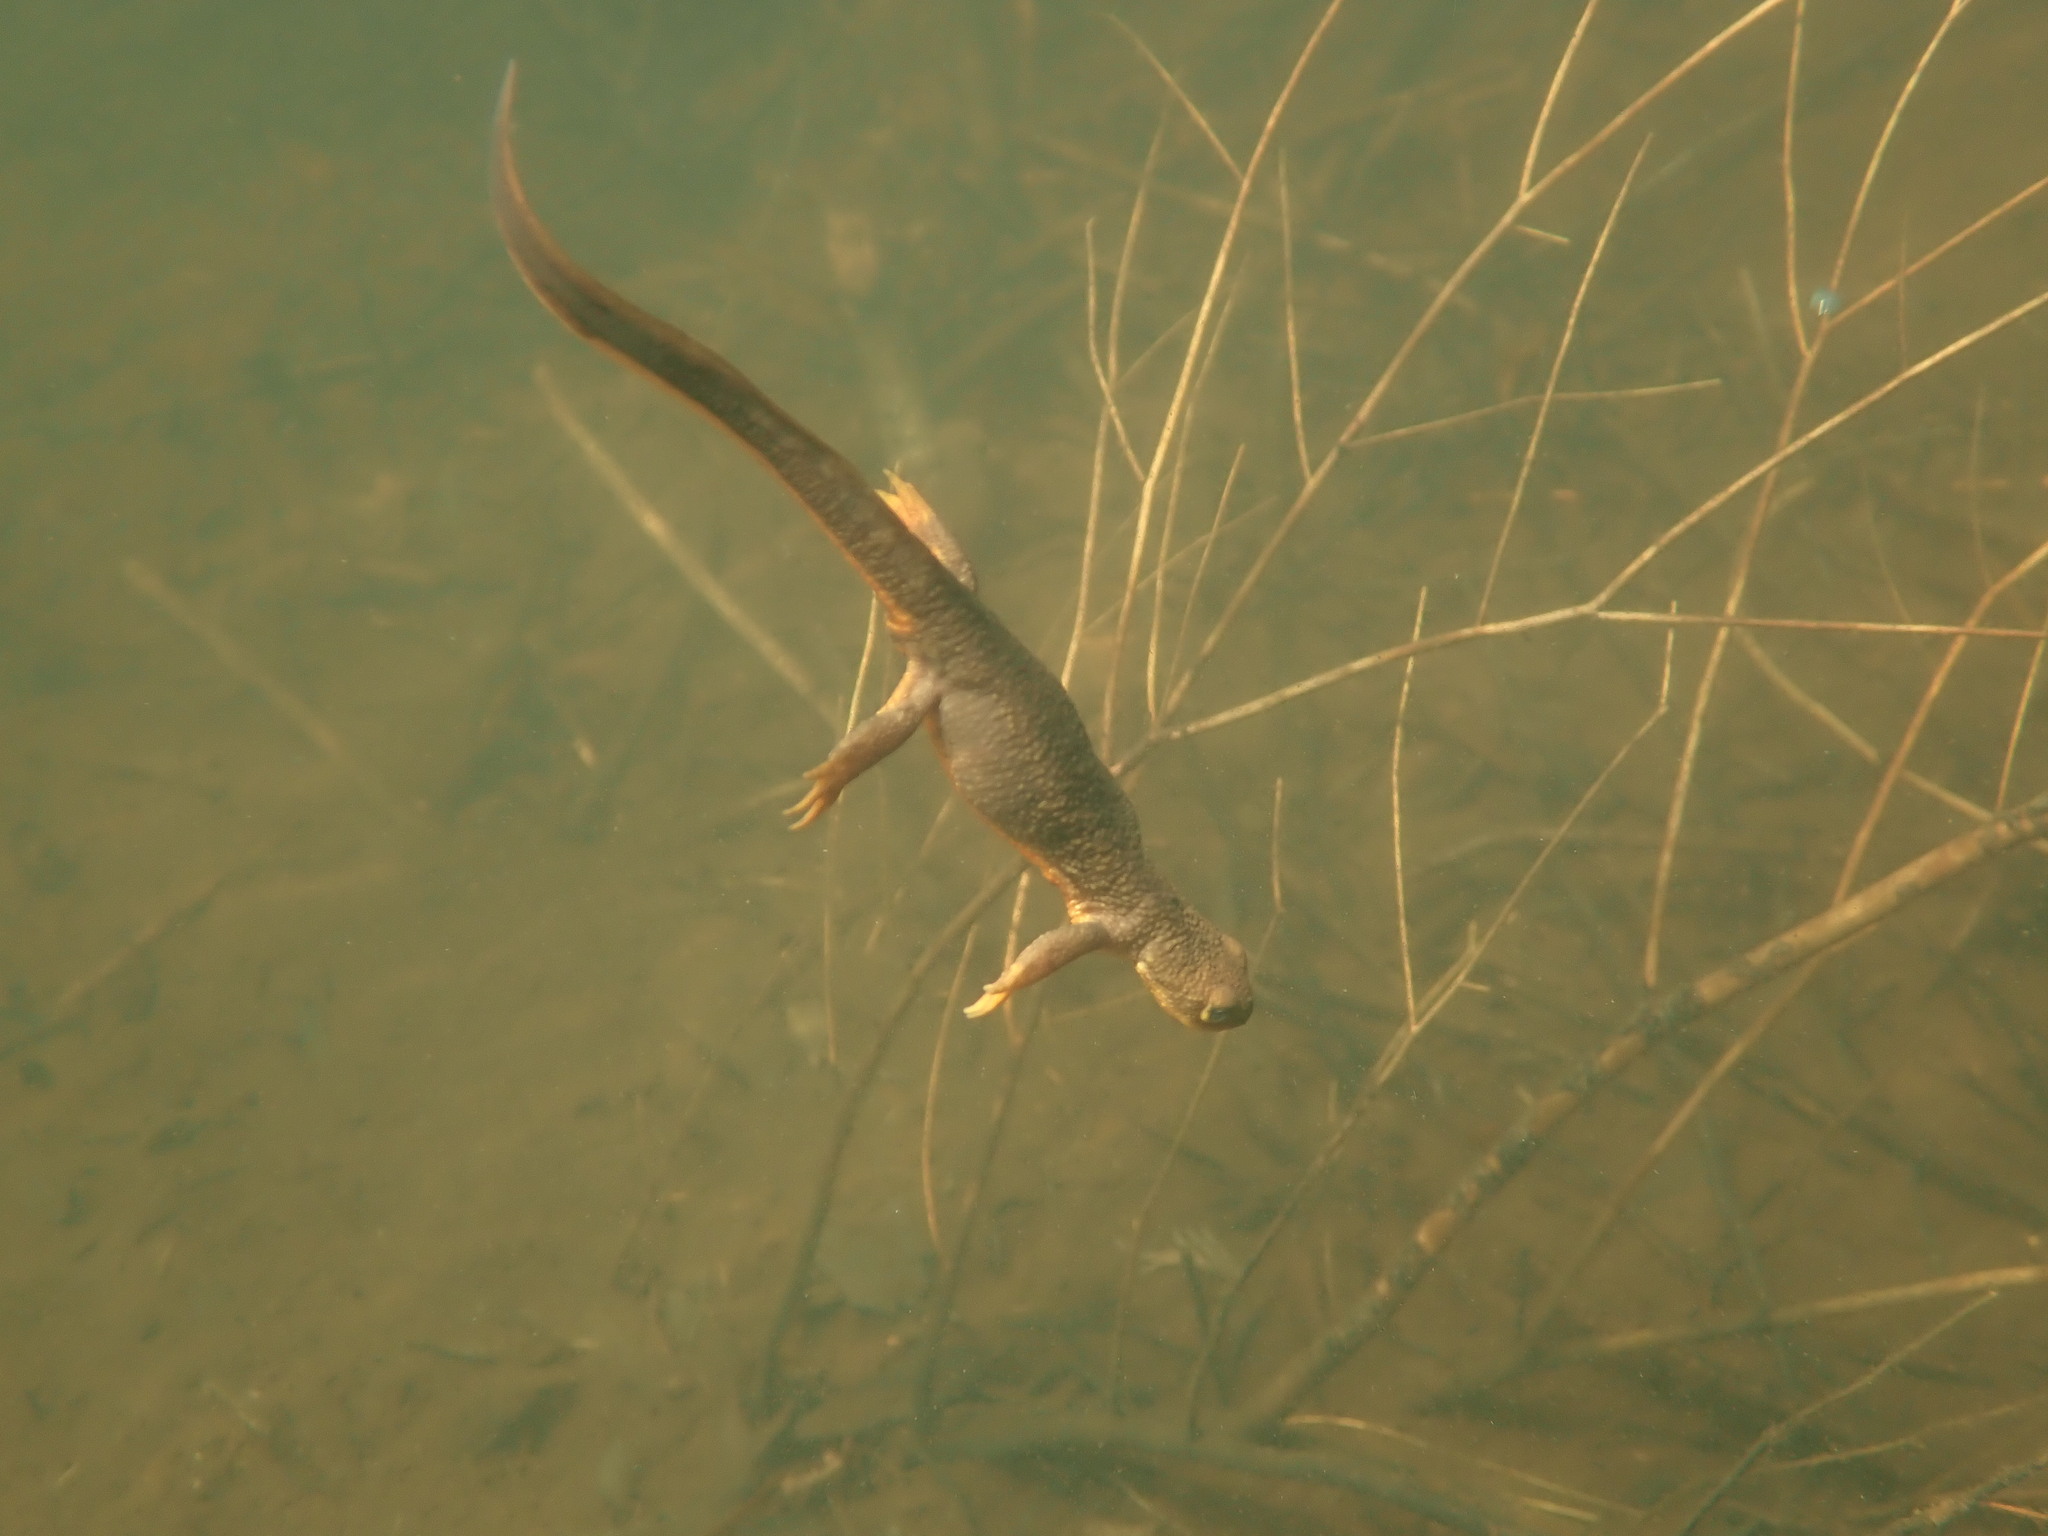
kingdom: Animalia
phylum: Chordata
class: Amphibia
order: Caudata
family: Salamandridae
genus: Taricha
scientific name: Taricha granulosa
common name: Roughskin newt
